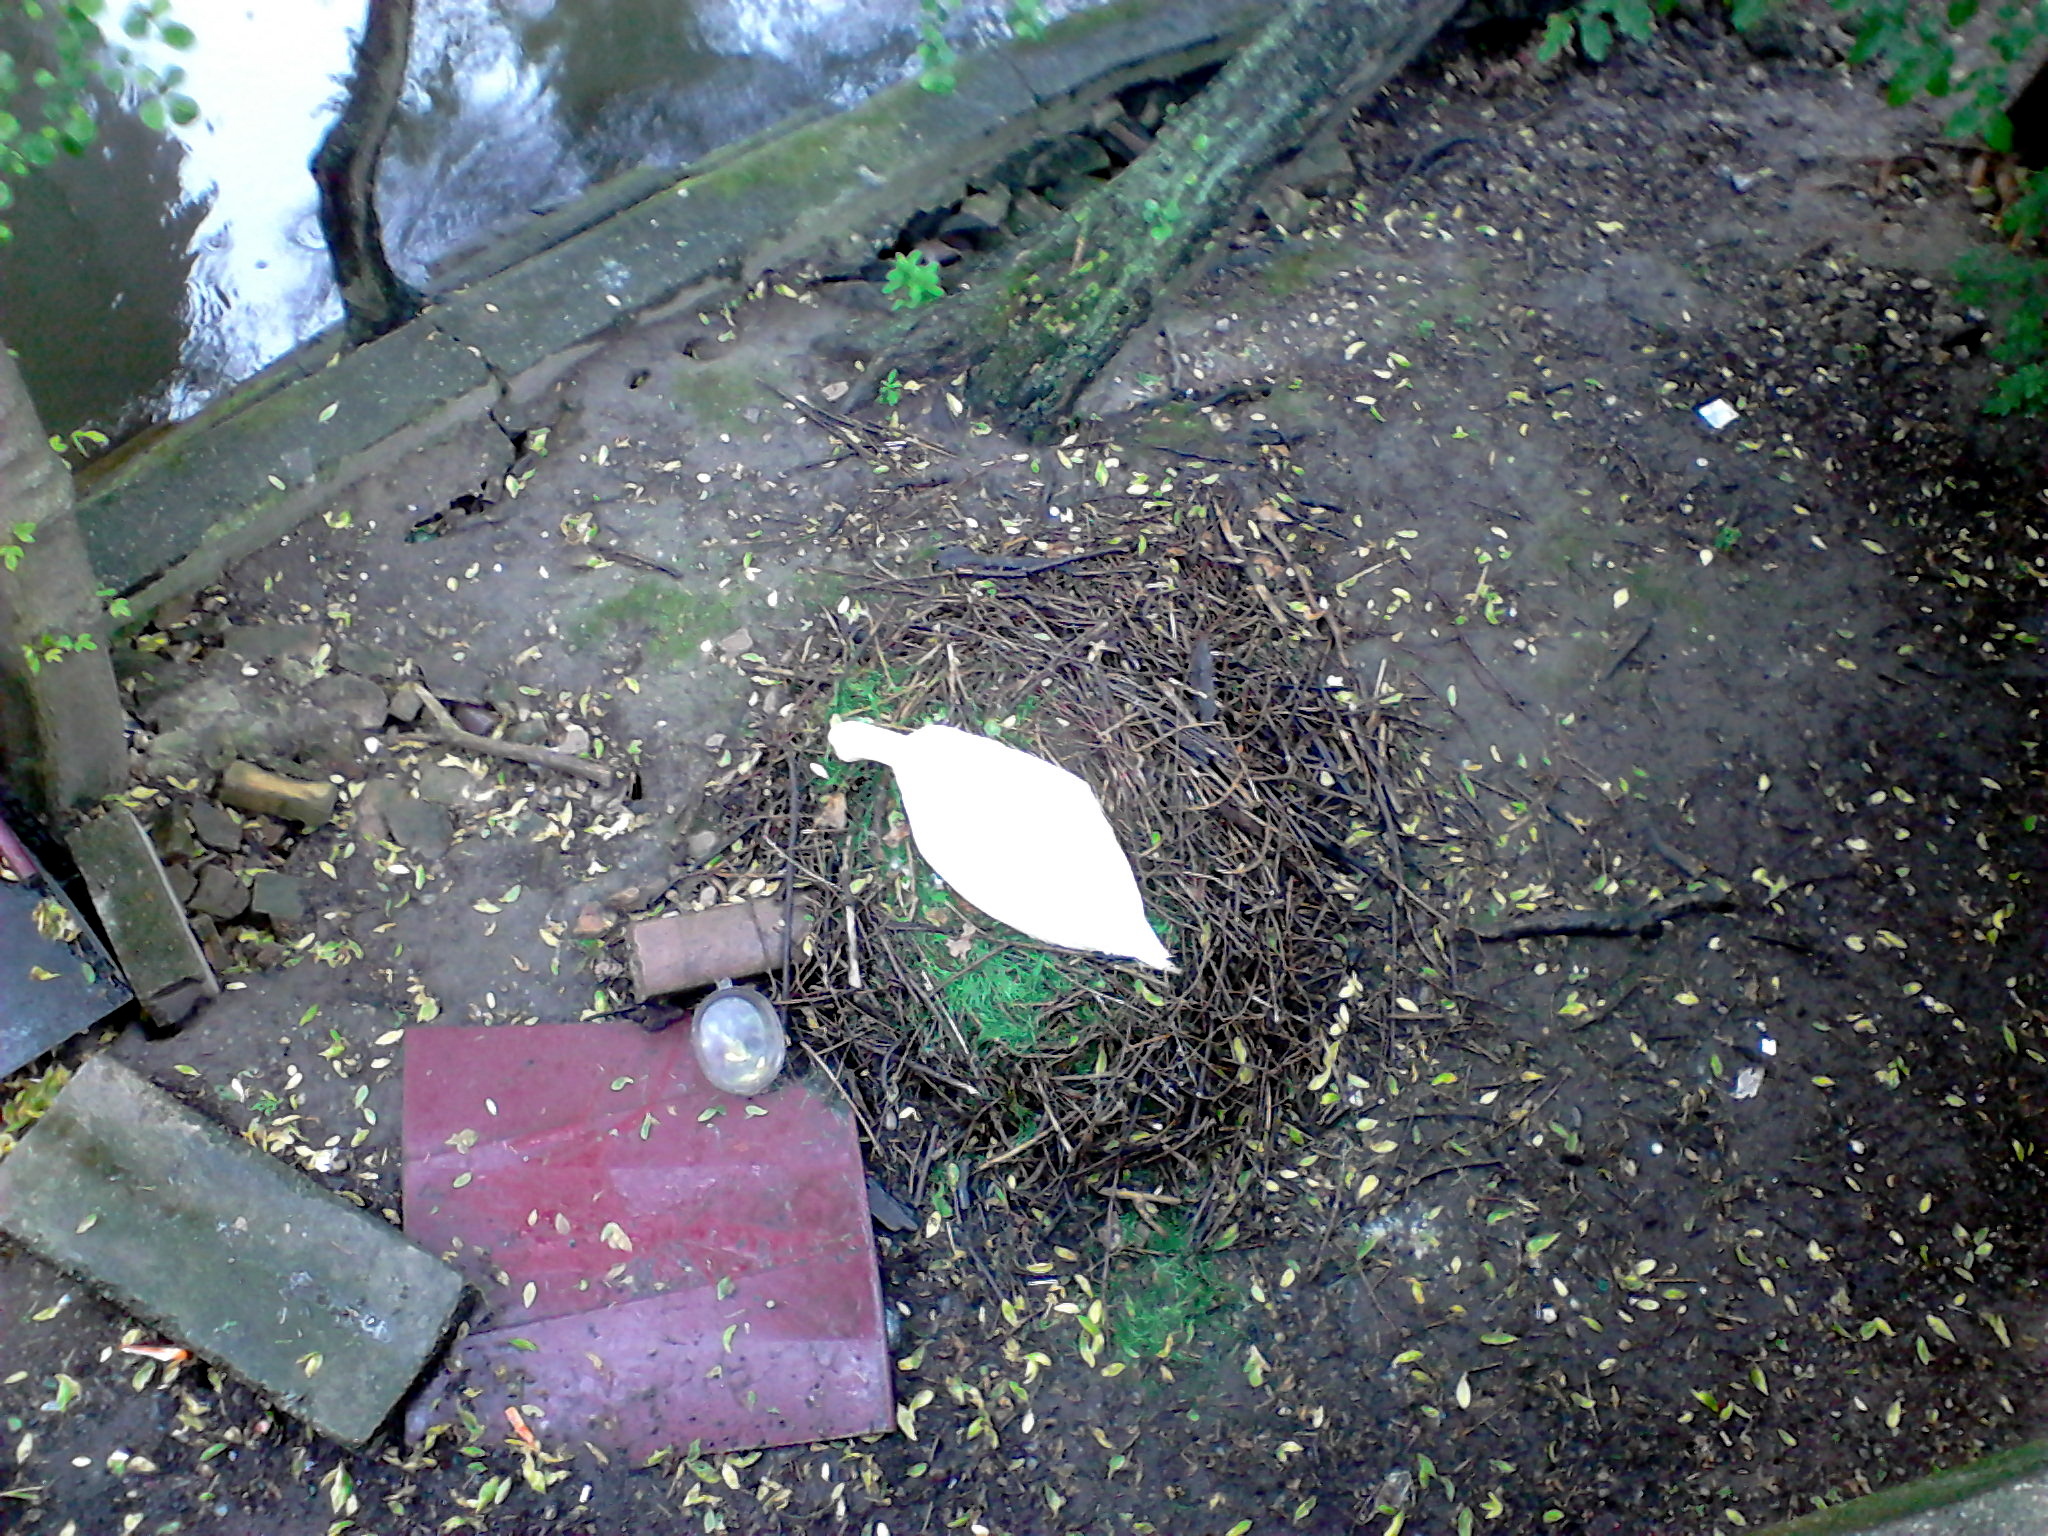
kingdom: Animalia
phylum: Chordata
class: Aves
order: Anseriformes
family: Anatidae
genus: Cygnus
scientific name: Cygnus olor
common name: Mute swan
